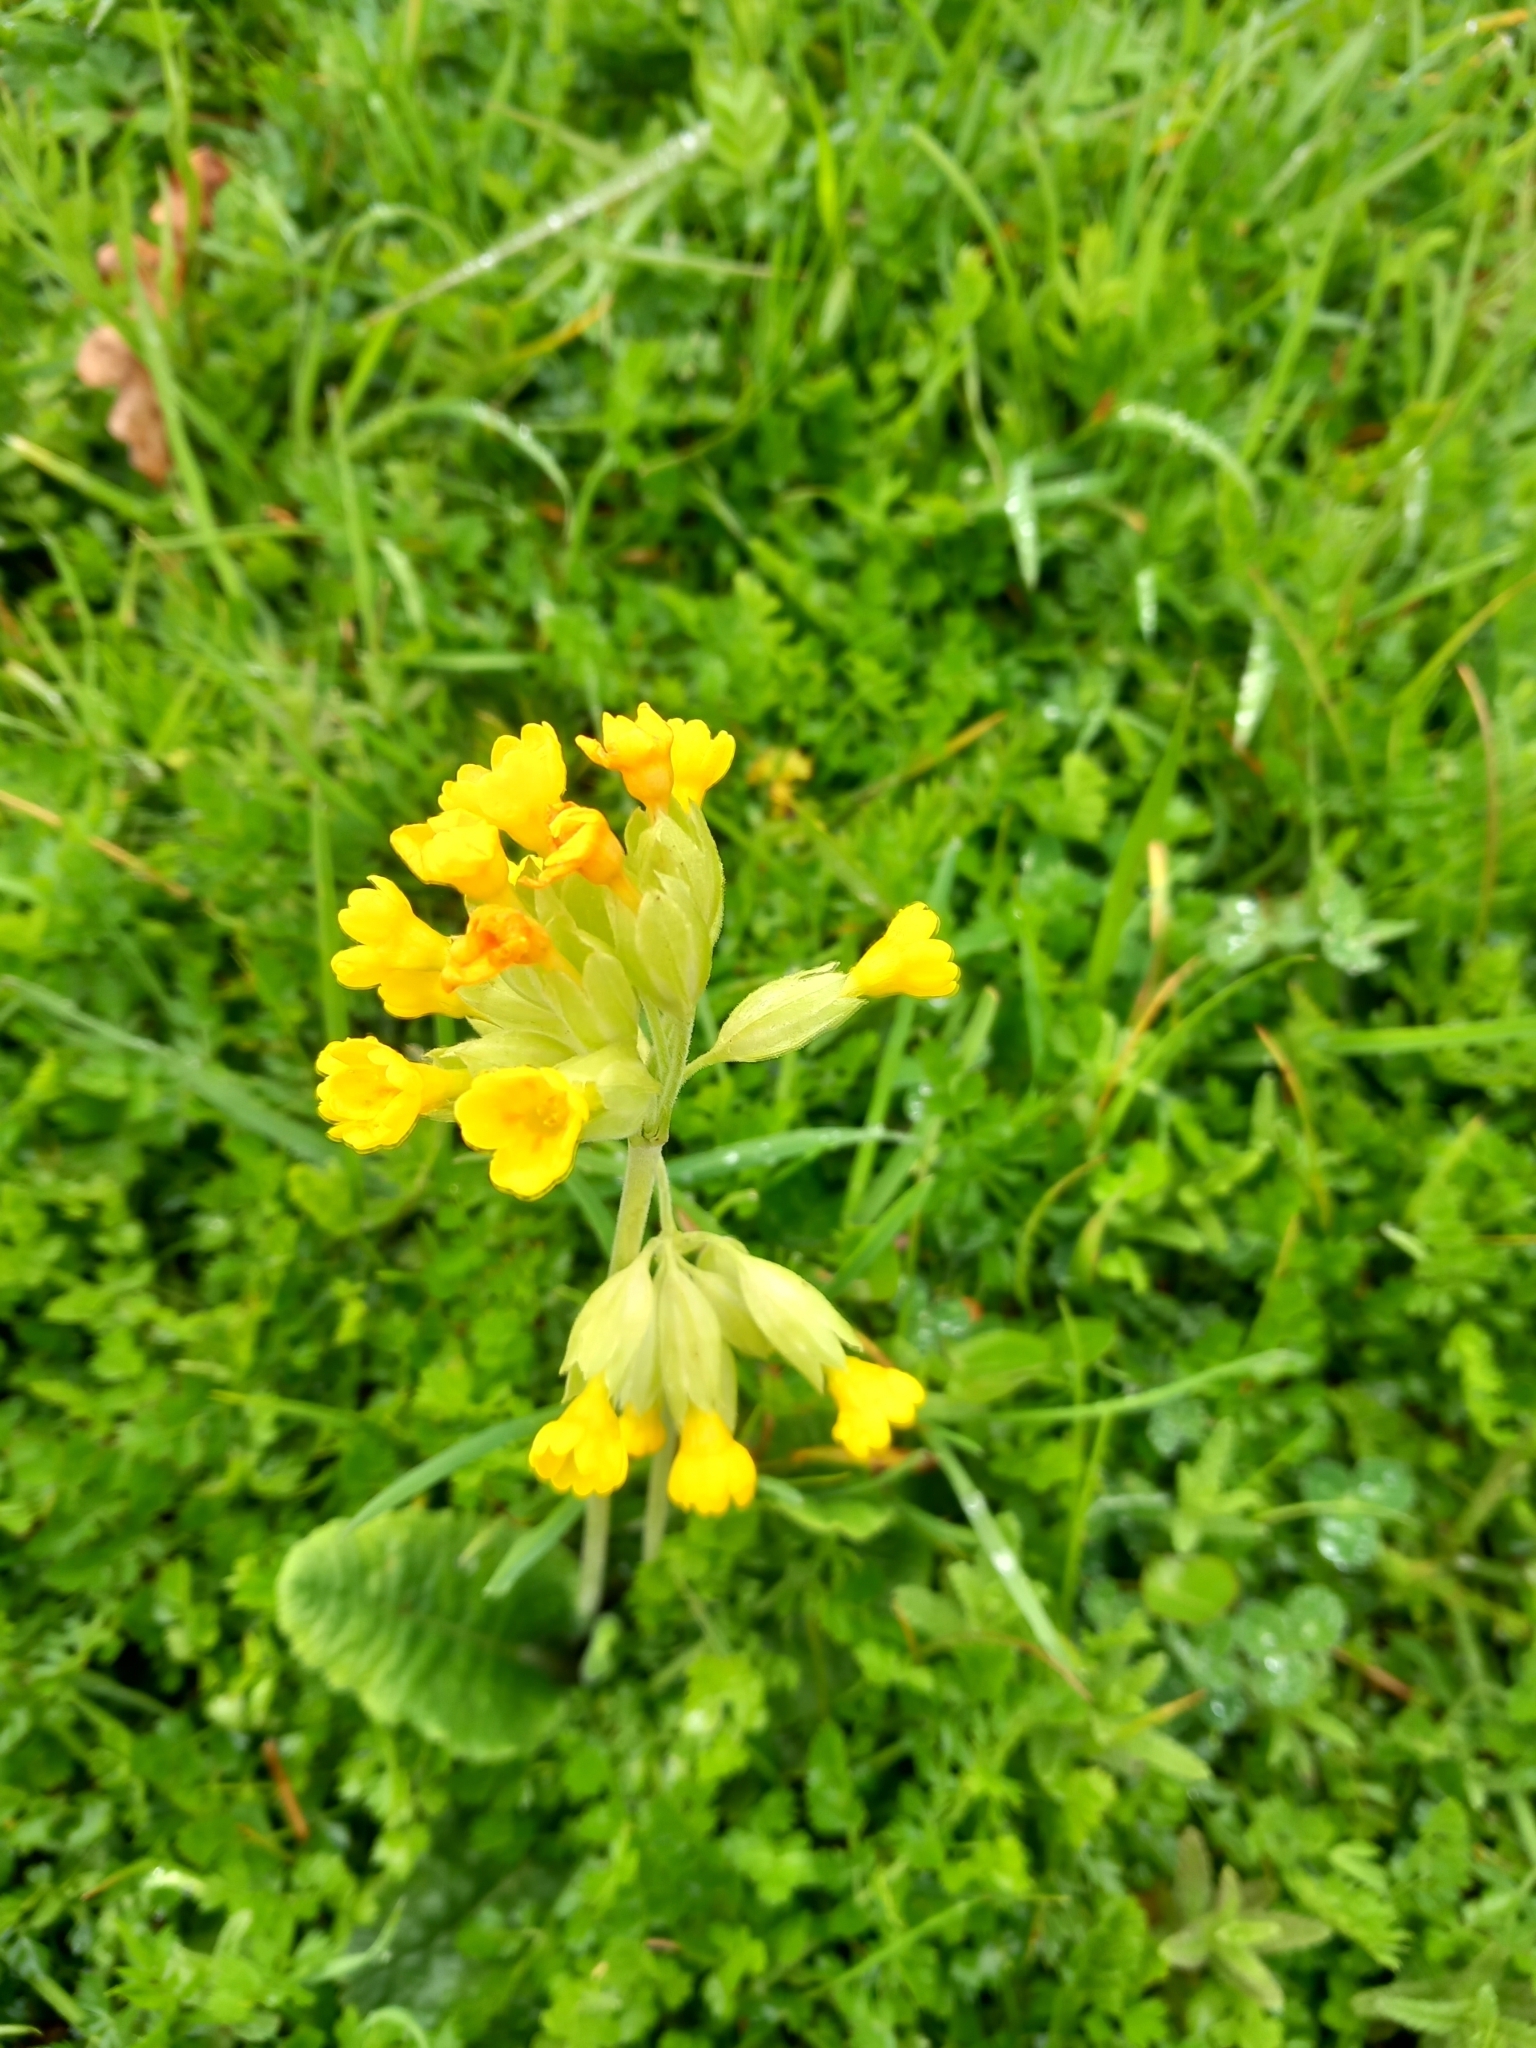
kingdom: Plantae
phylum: Tracheophyta
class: Magnoliopsida
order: Ericales
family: Primulaceae
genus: Primula
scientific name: Primula veris
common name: Cowslip
